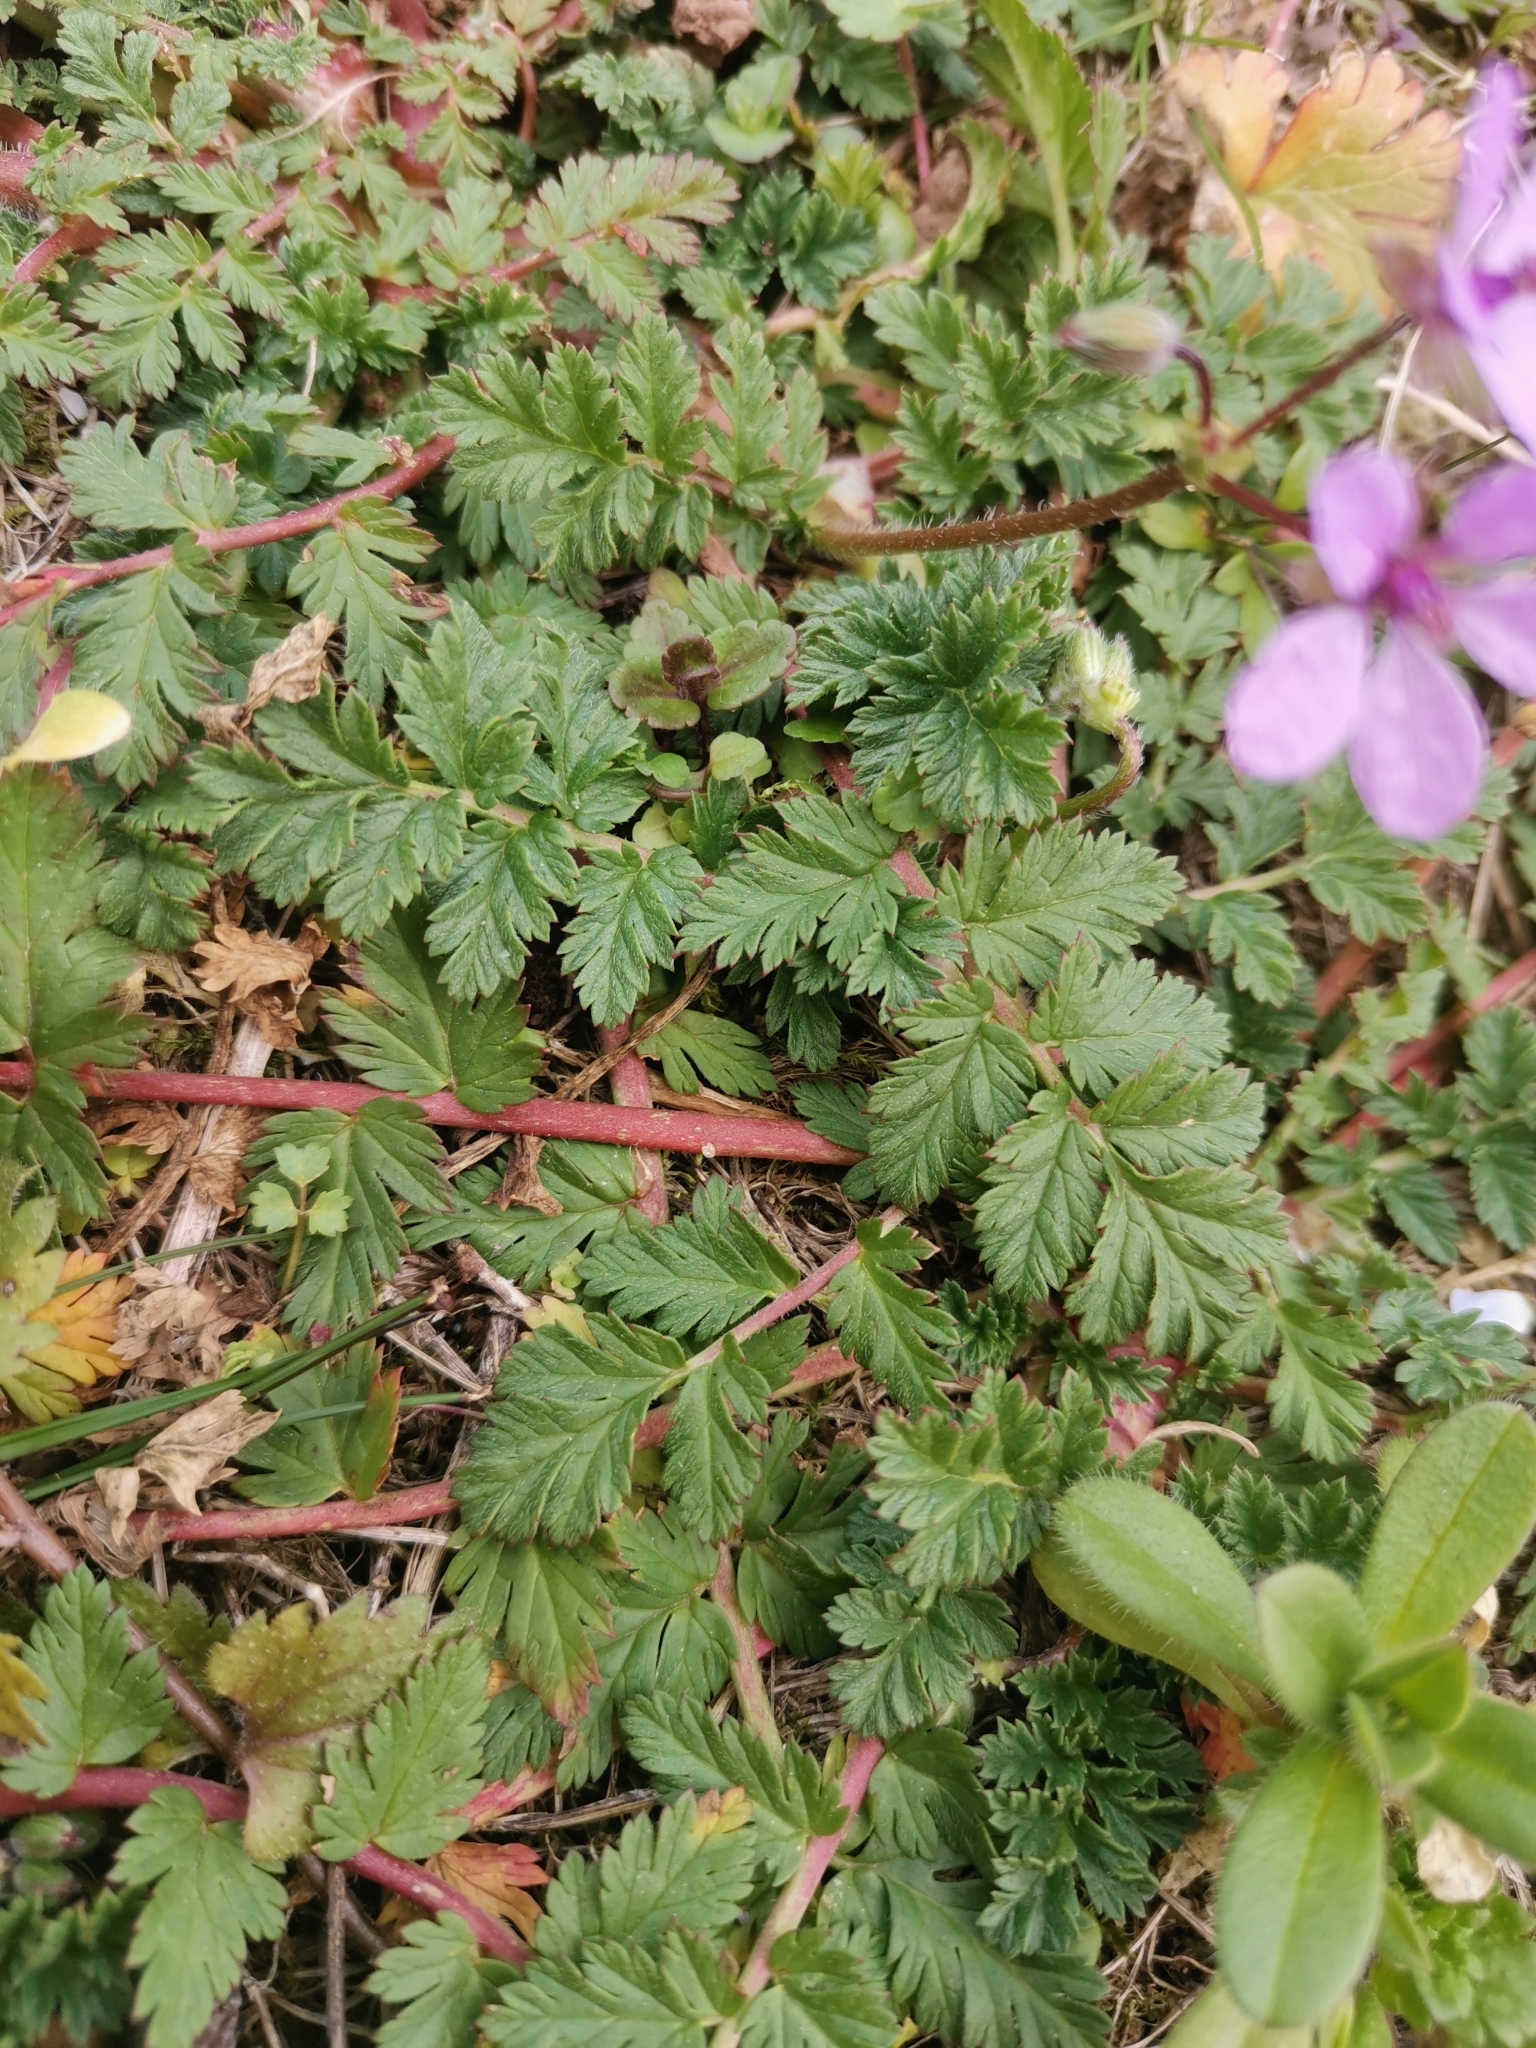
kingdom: Plantae
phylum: Tracheophyta
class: Magnoliopsida
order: Geraniales
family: Geraniaceae
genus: Erodium
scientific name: Erodium cicutarium
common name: Common stork's-bill
